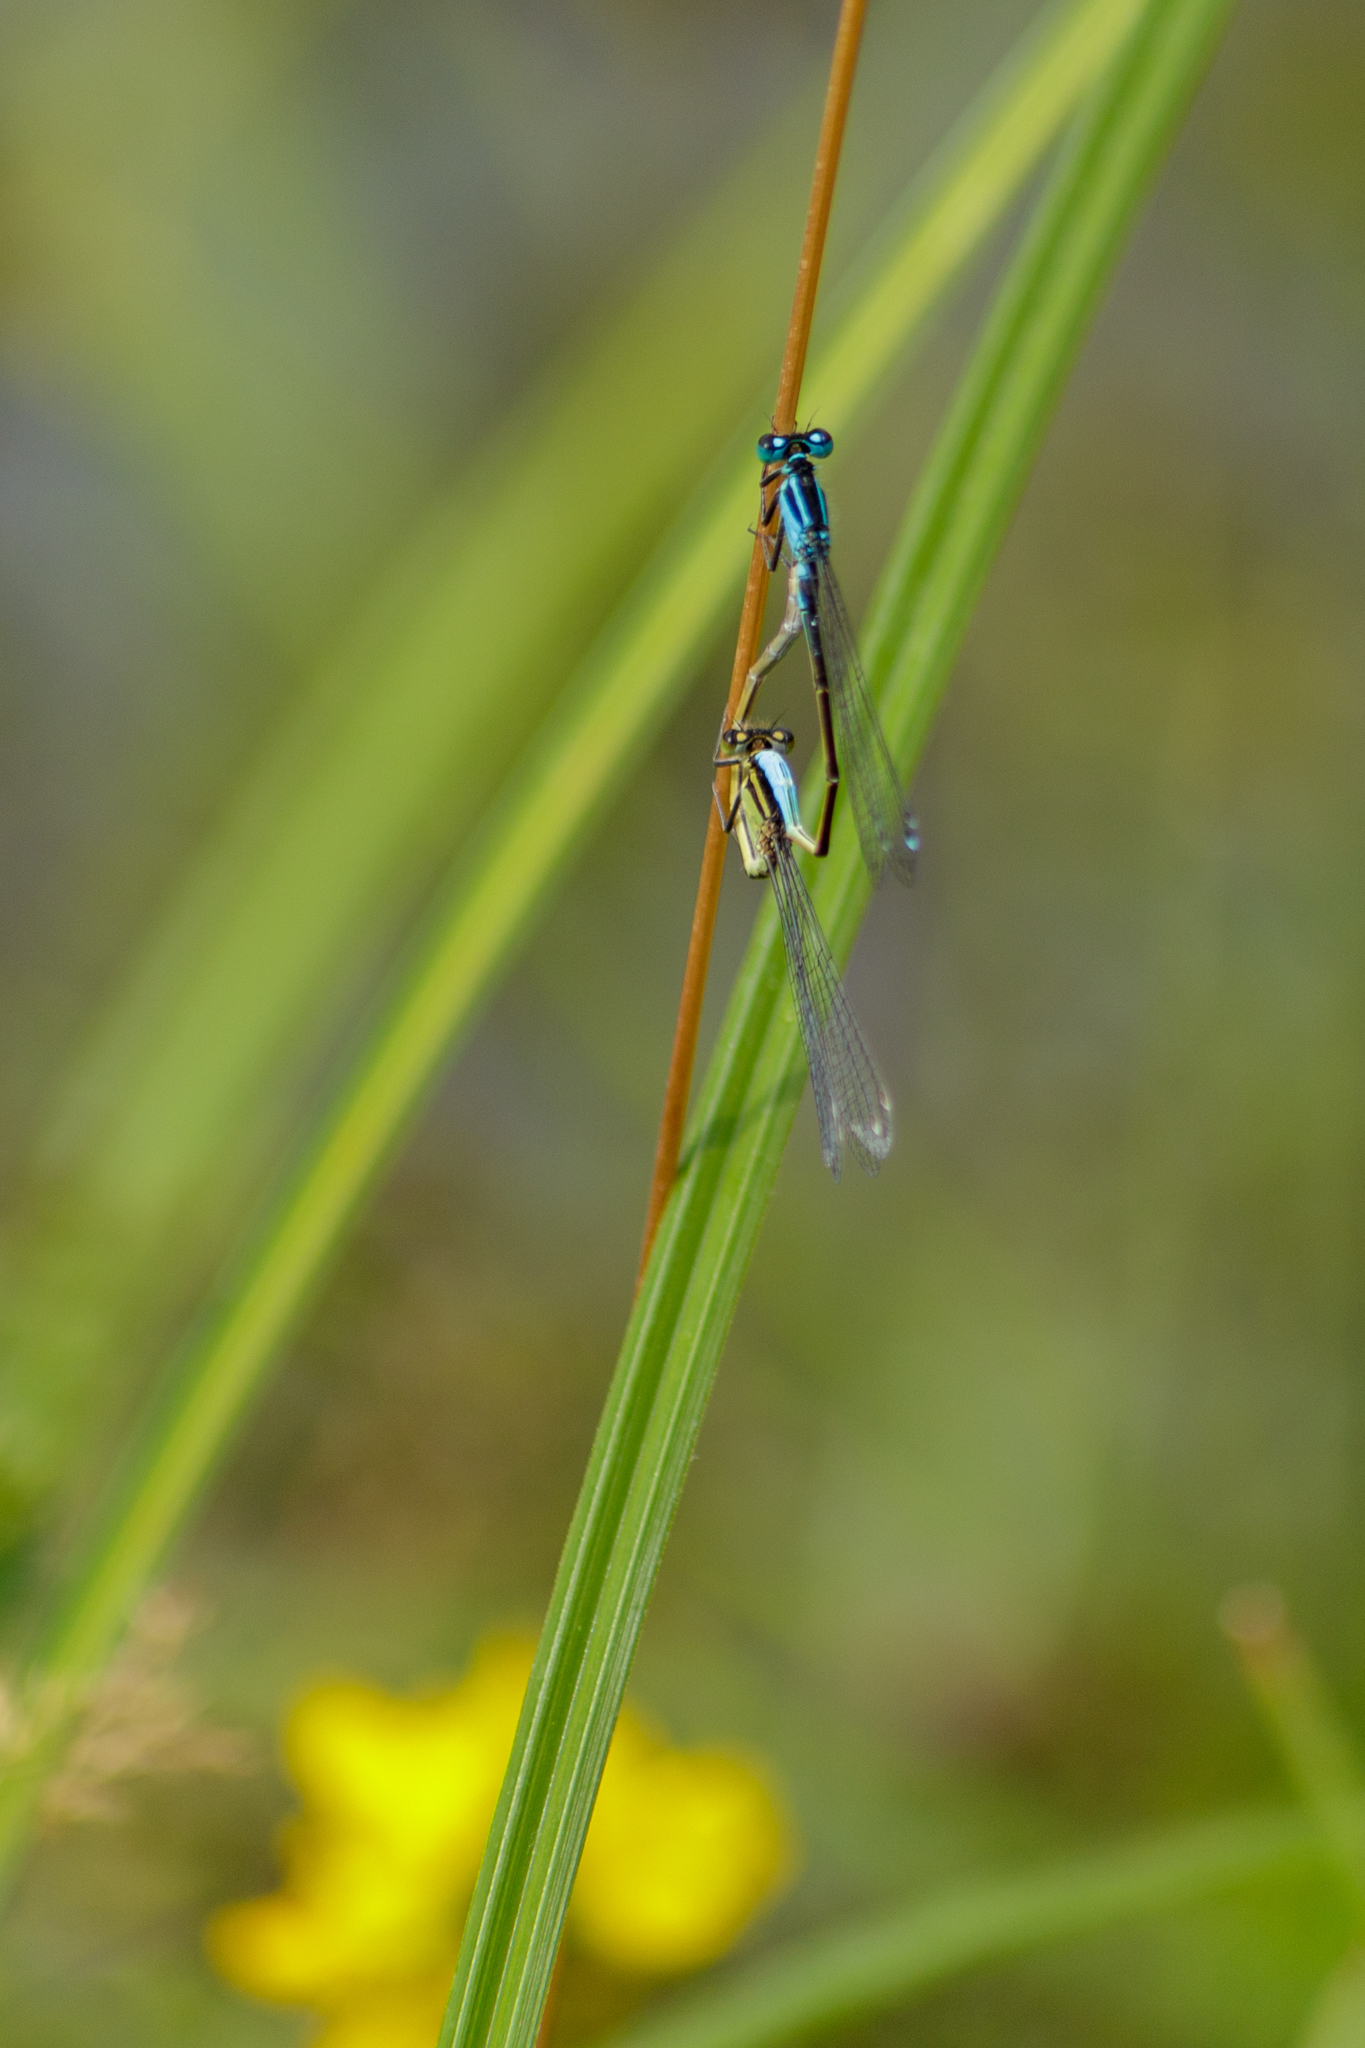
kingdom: Animalia
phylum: Arthropoda
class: Insecta
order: Odonata
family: Coenagrionidae
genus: Ischnura
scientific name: Ischnura elegans
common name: Blue-tailed damselfly
